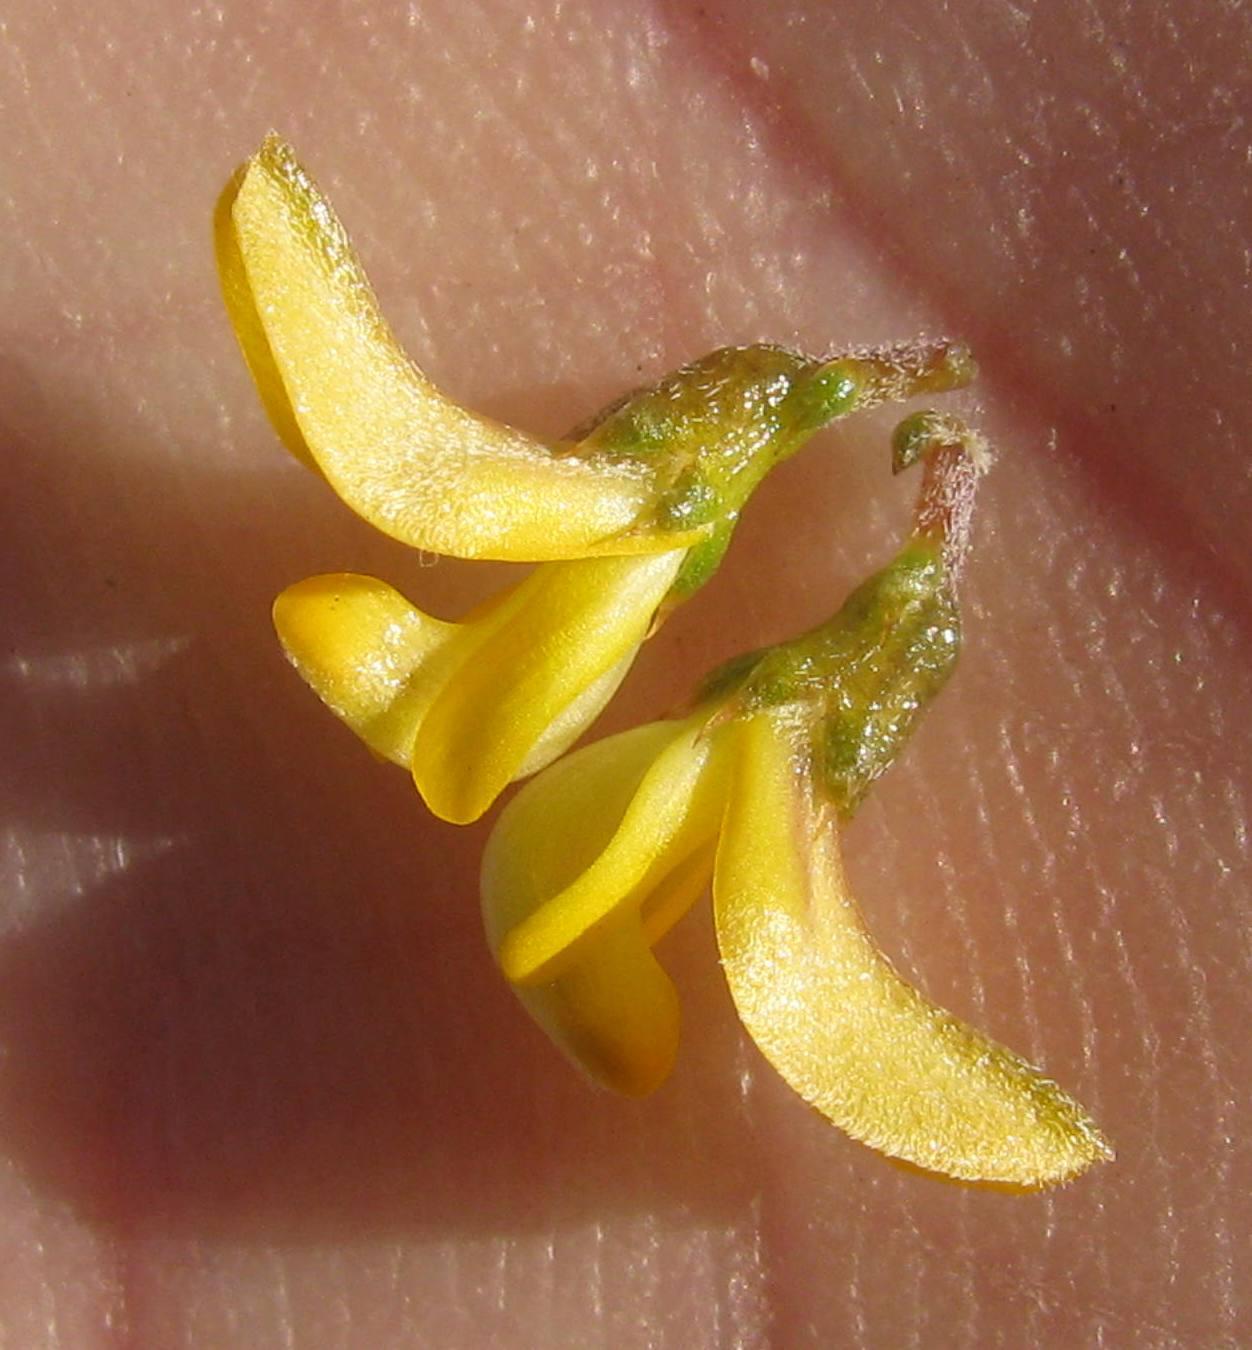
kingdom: Plantae
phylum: Tracheophyta
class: Magnoliopsida
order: Fabales
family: Fabaceae
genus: Aspalathus
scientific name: Aspalathus divaricata
